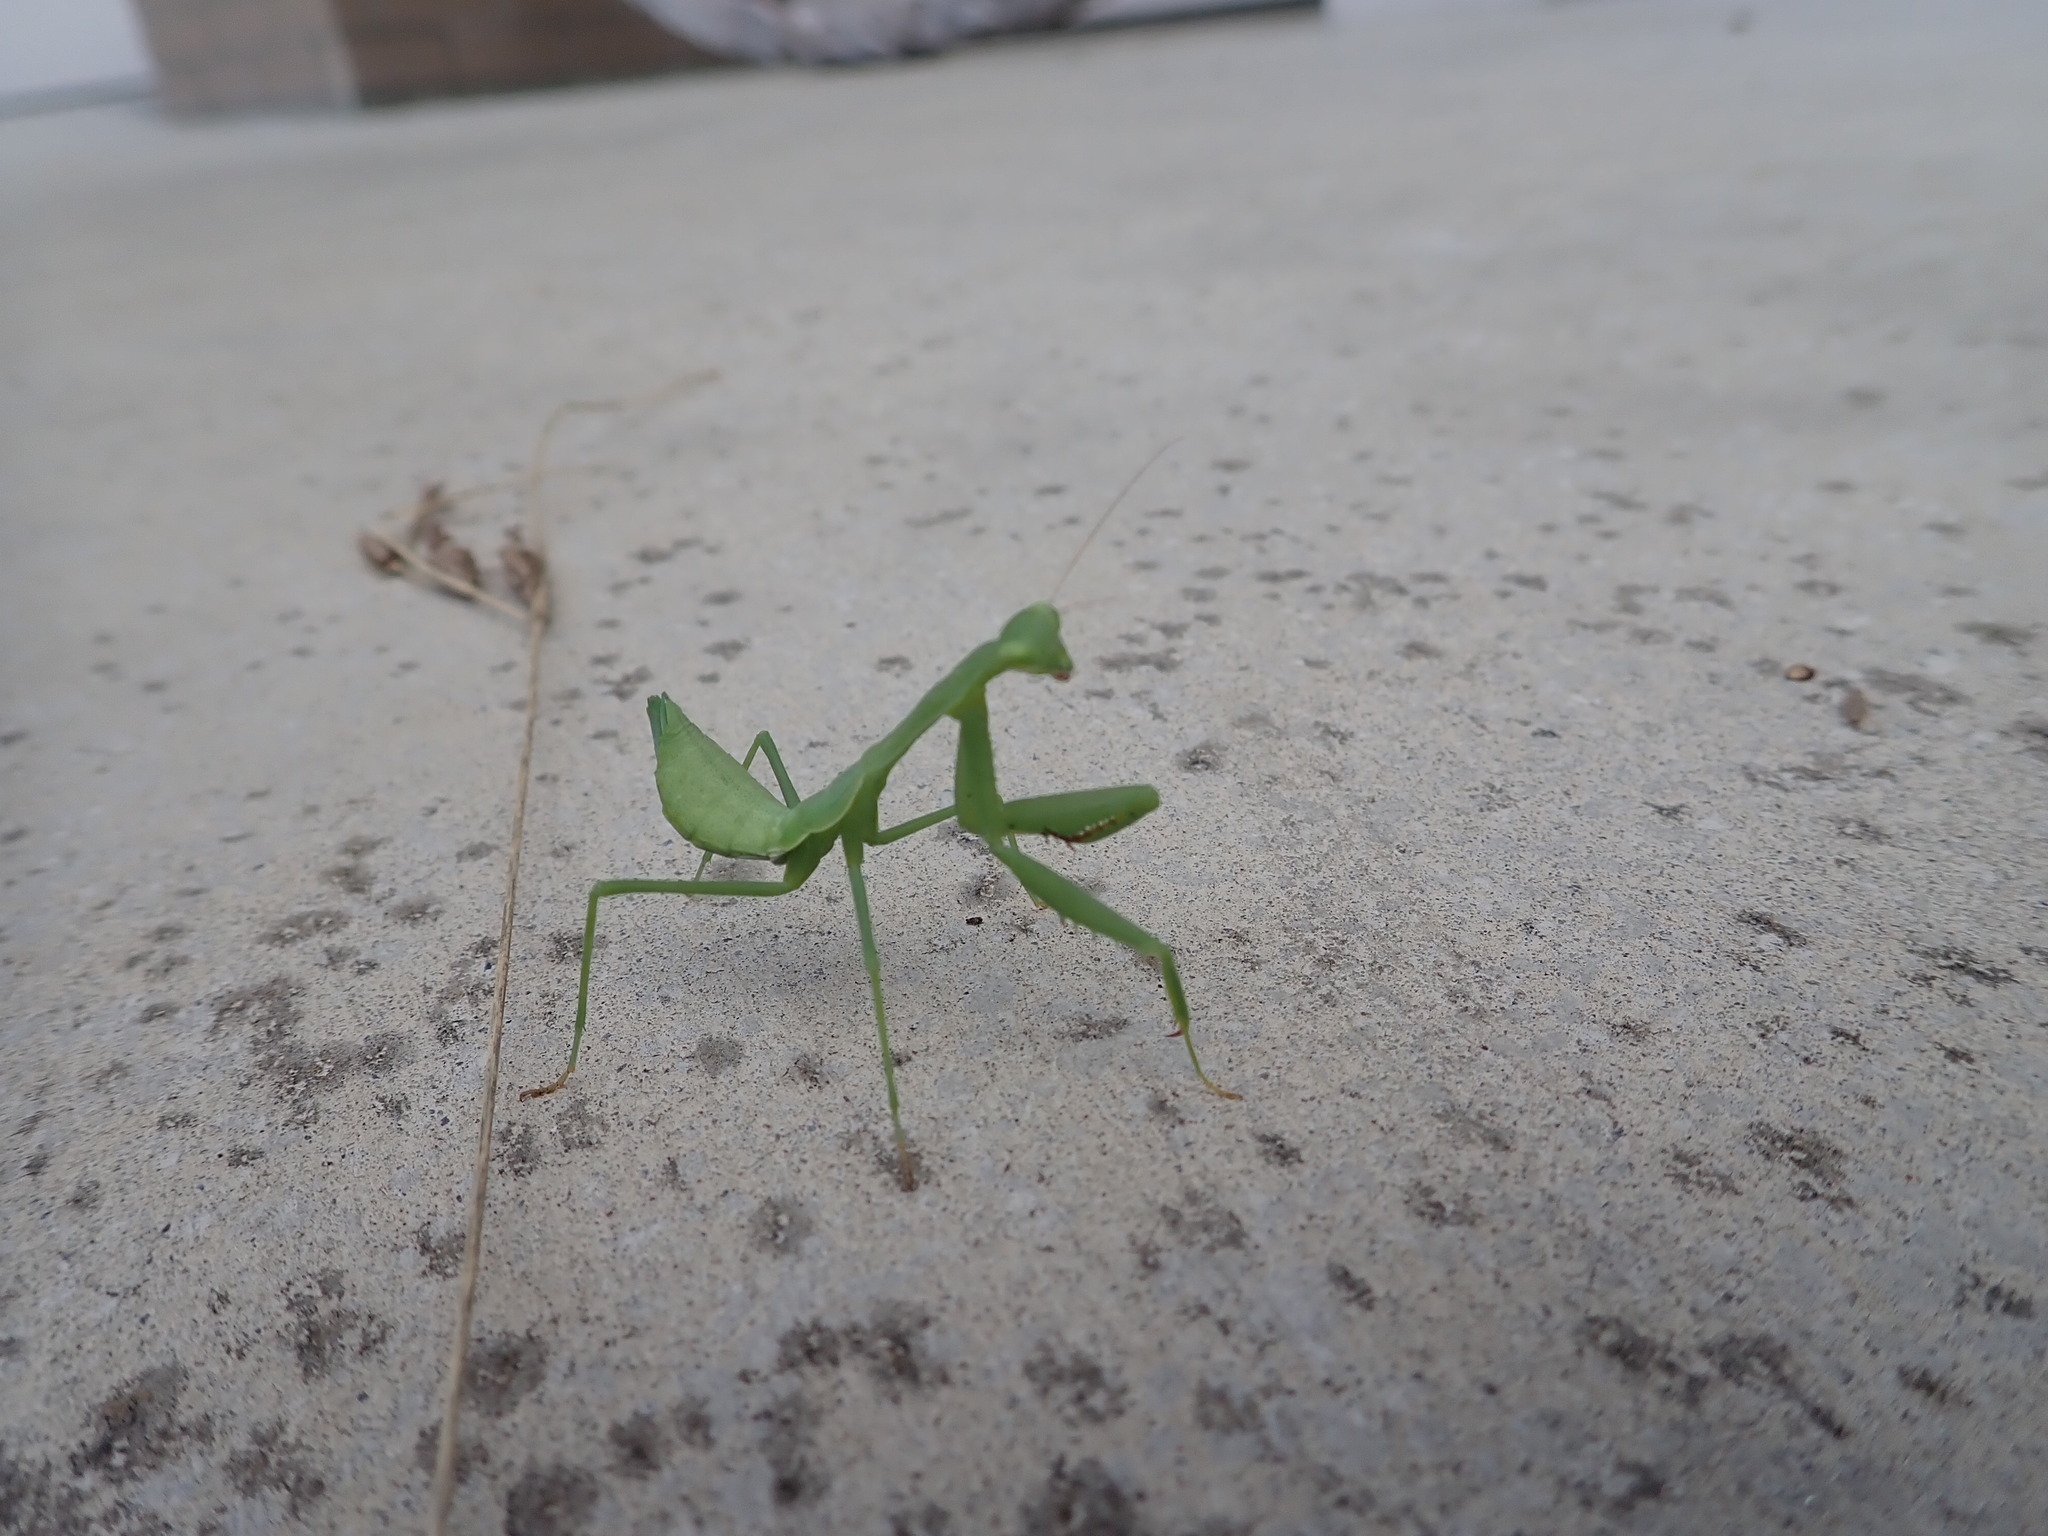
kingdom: Animalia
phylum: Arthropoda
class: Insecta
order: Mantodea
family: Miomantidae
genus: Miomantis
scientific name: Miomantis caffra
